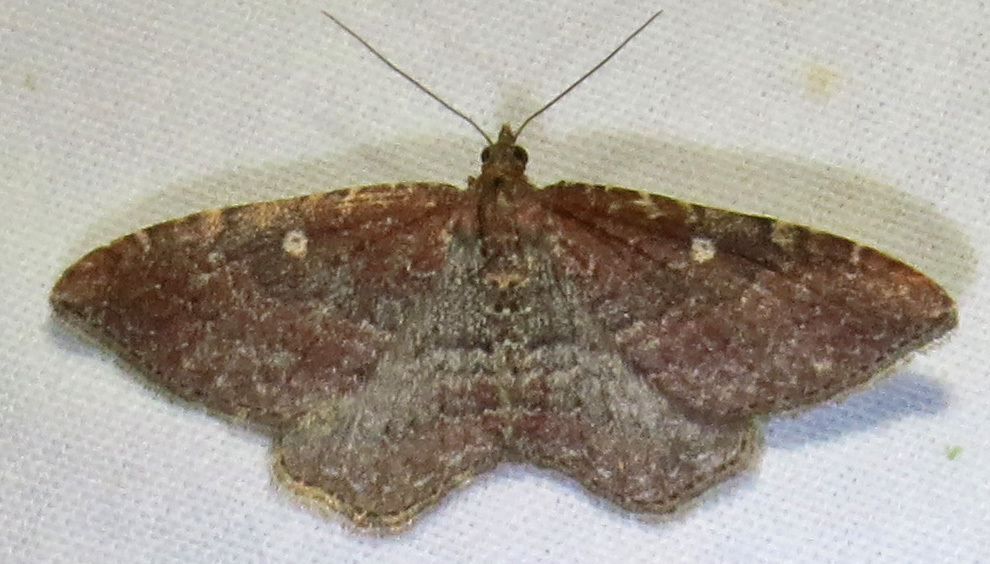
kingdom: Animalia
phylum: Arthropoda
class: Insecta
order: Lepidoptera
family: Geometridae
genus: Orthonama
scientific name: Orthonama obstipata
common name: The gem
